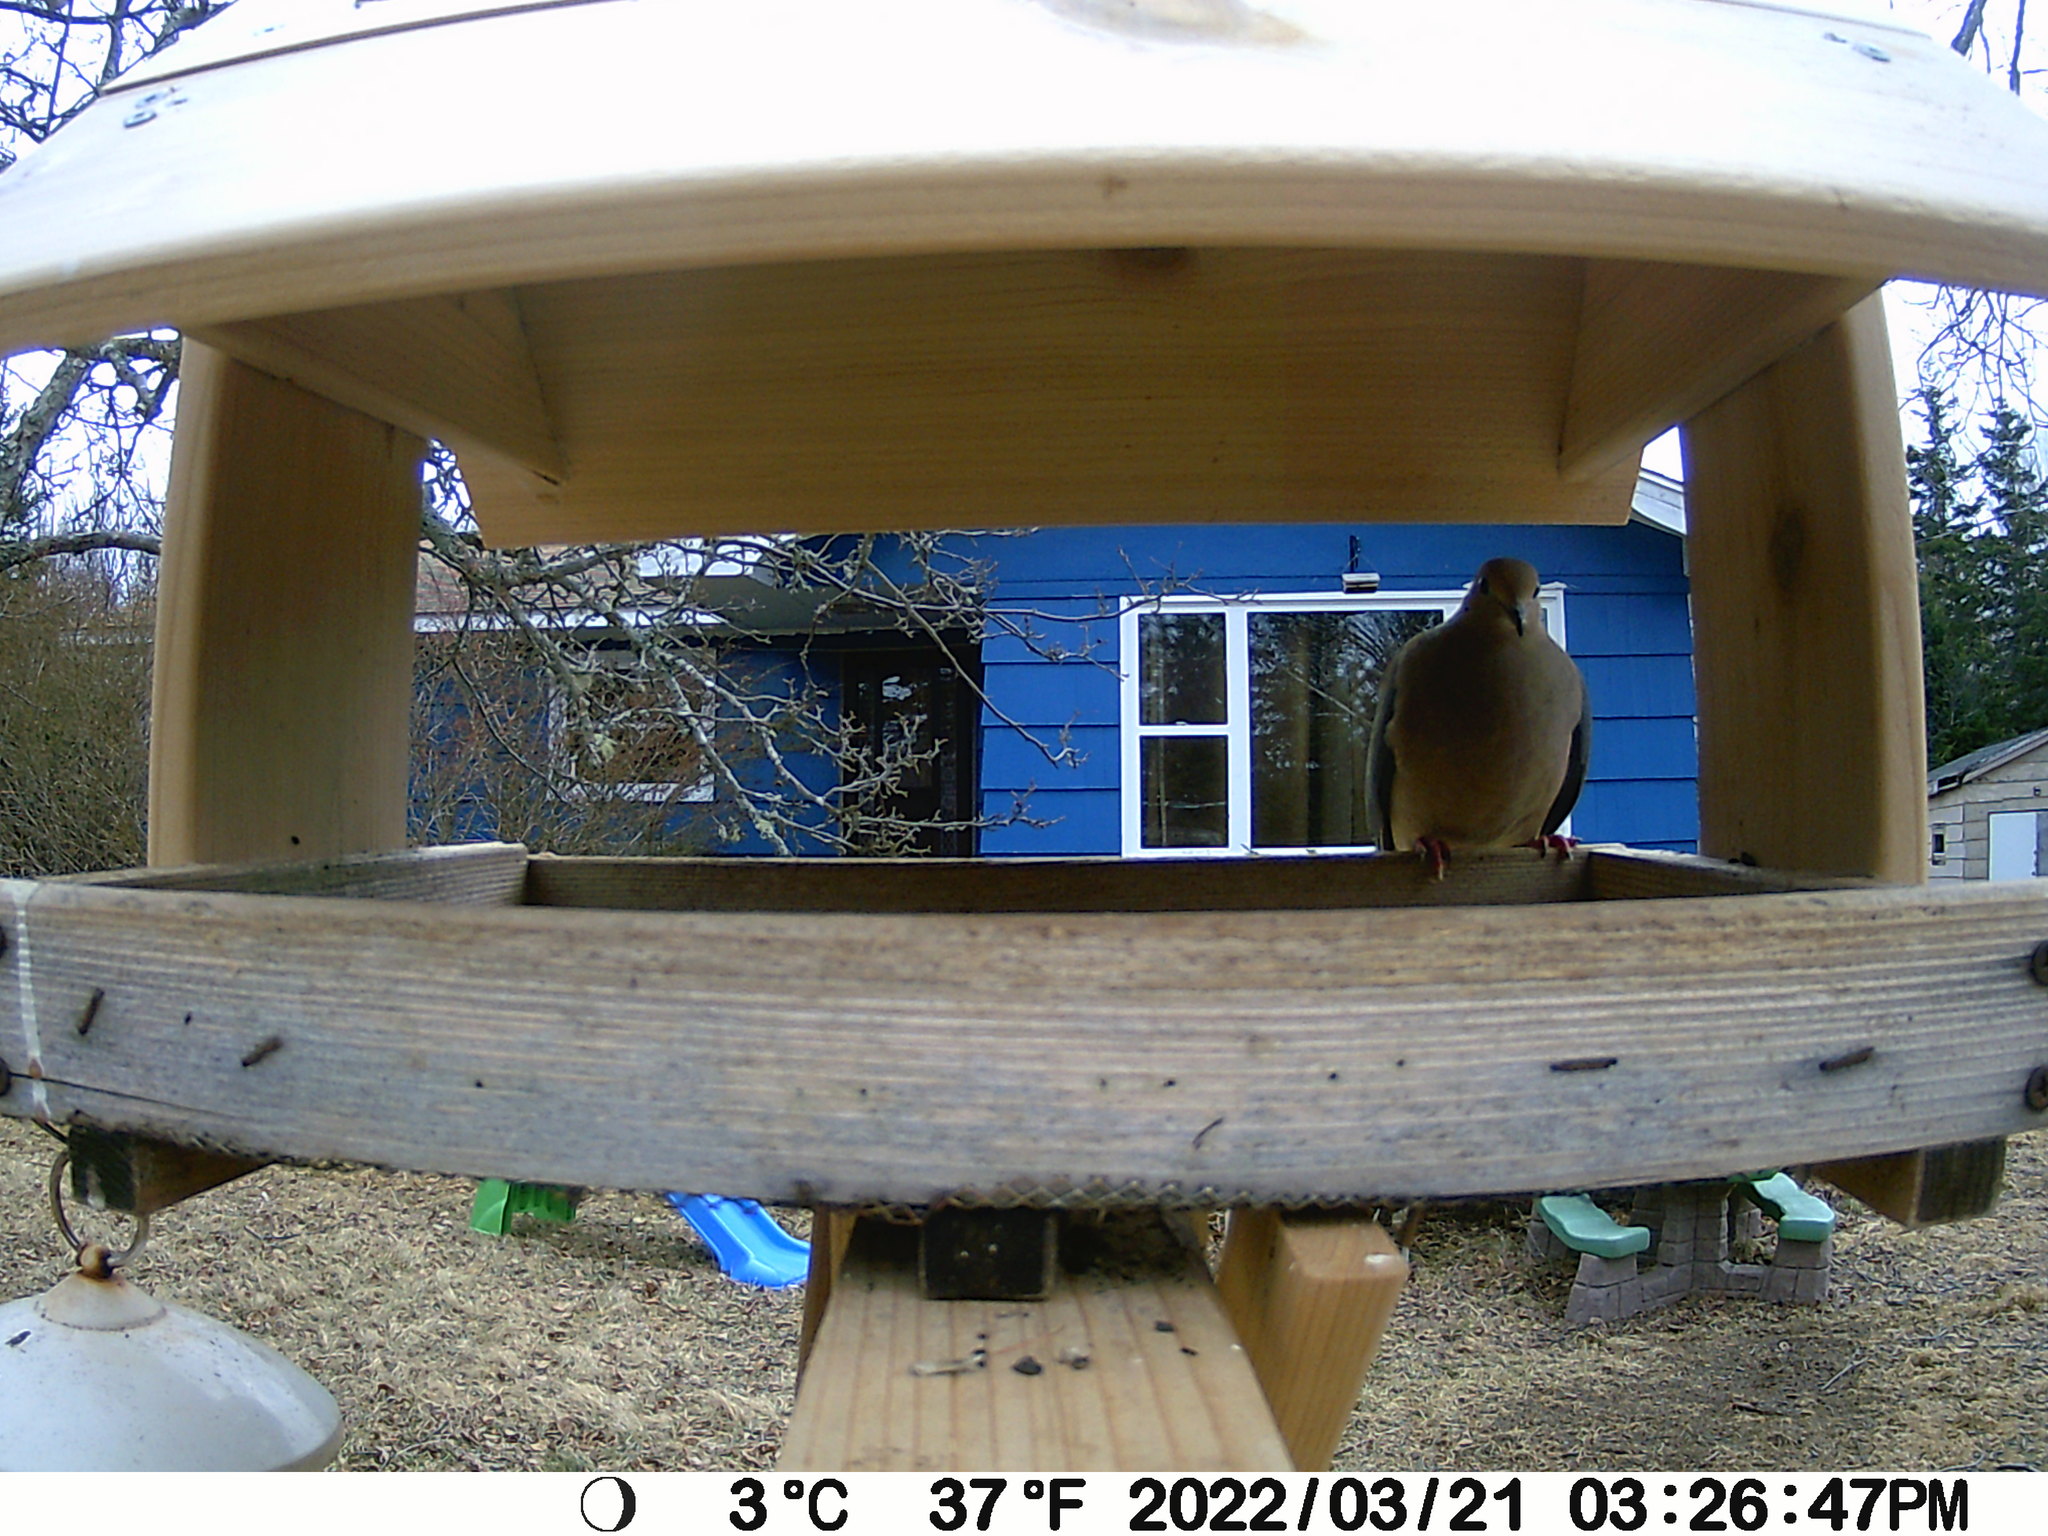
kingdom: Animalia
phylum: Chordata
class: Aves
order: Columbiformes
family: Columbidae
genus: Zenaida
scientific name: Zenaida macroura
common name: Mourning dove
